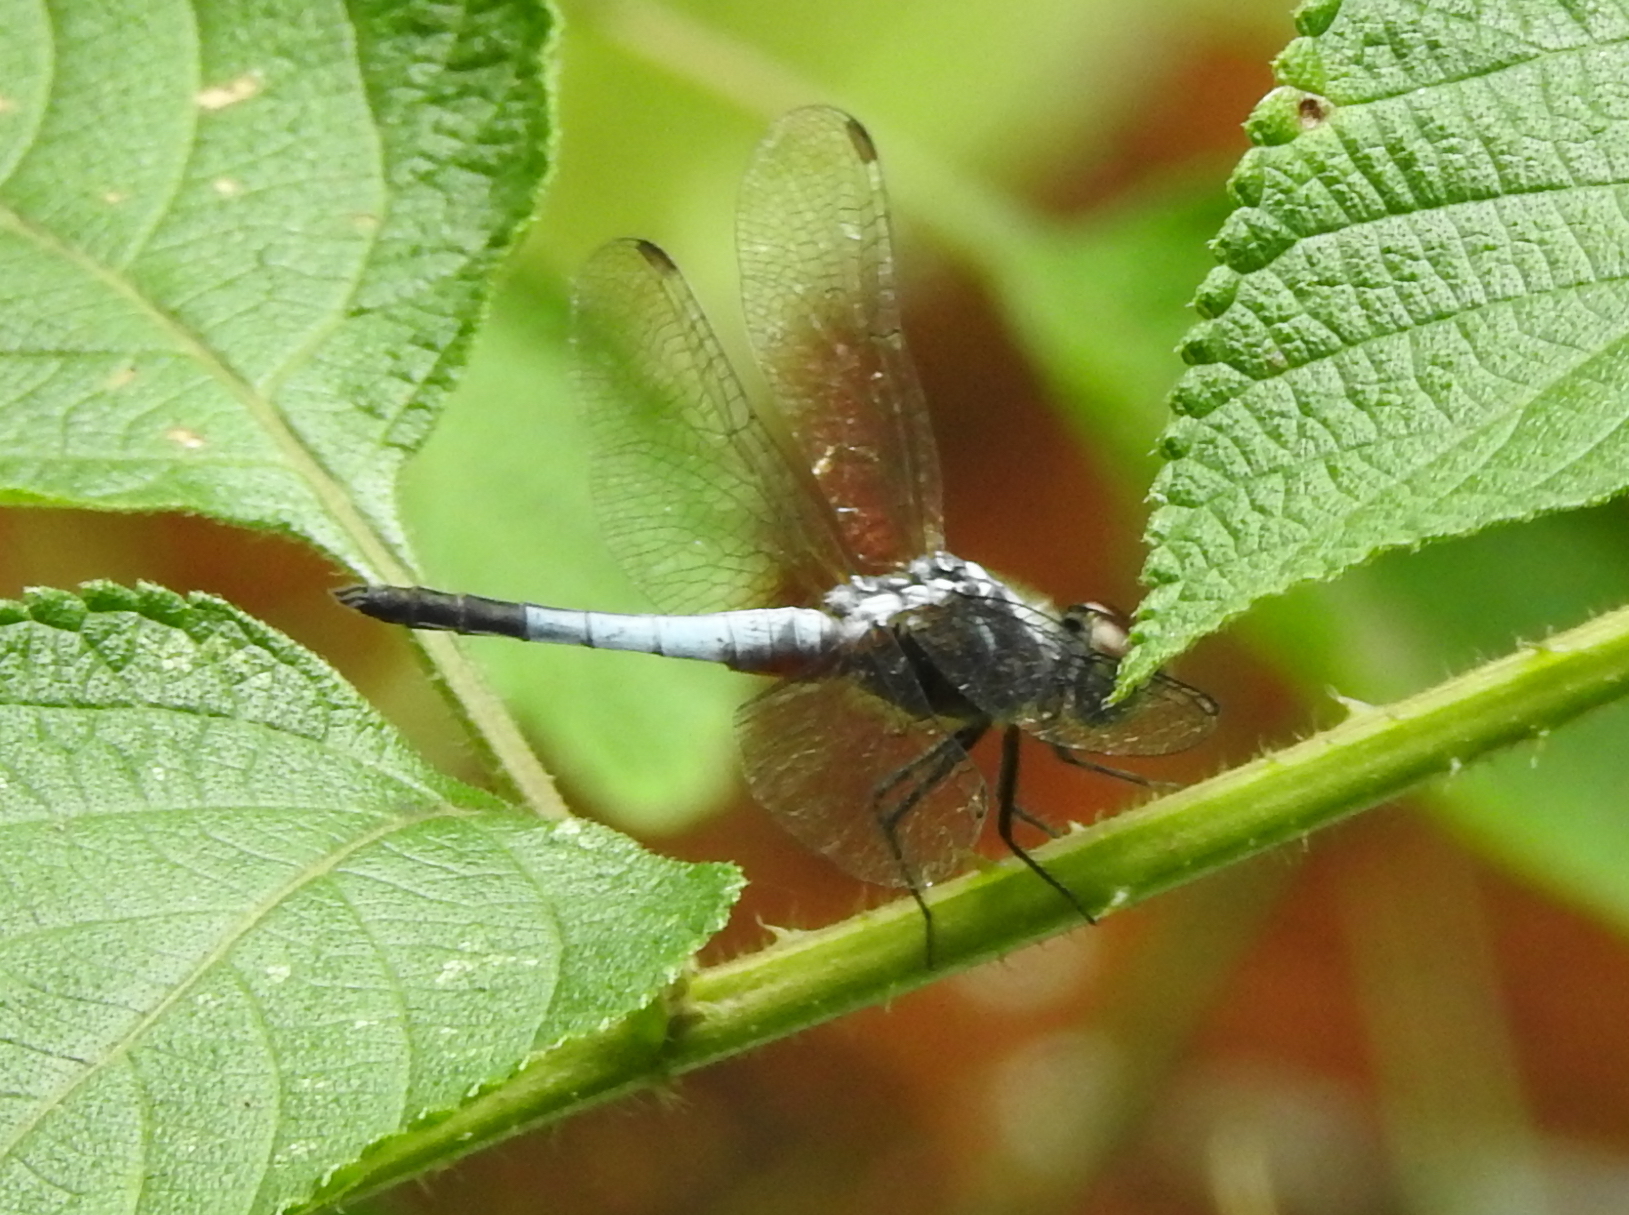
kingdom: Animalia
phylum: Arthropoda
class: Insecta
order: Odonata
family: Libellulidae
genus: Brachydiplax
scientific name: Brachydiplax chalybea
